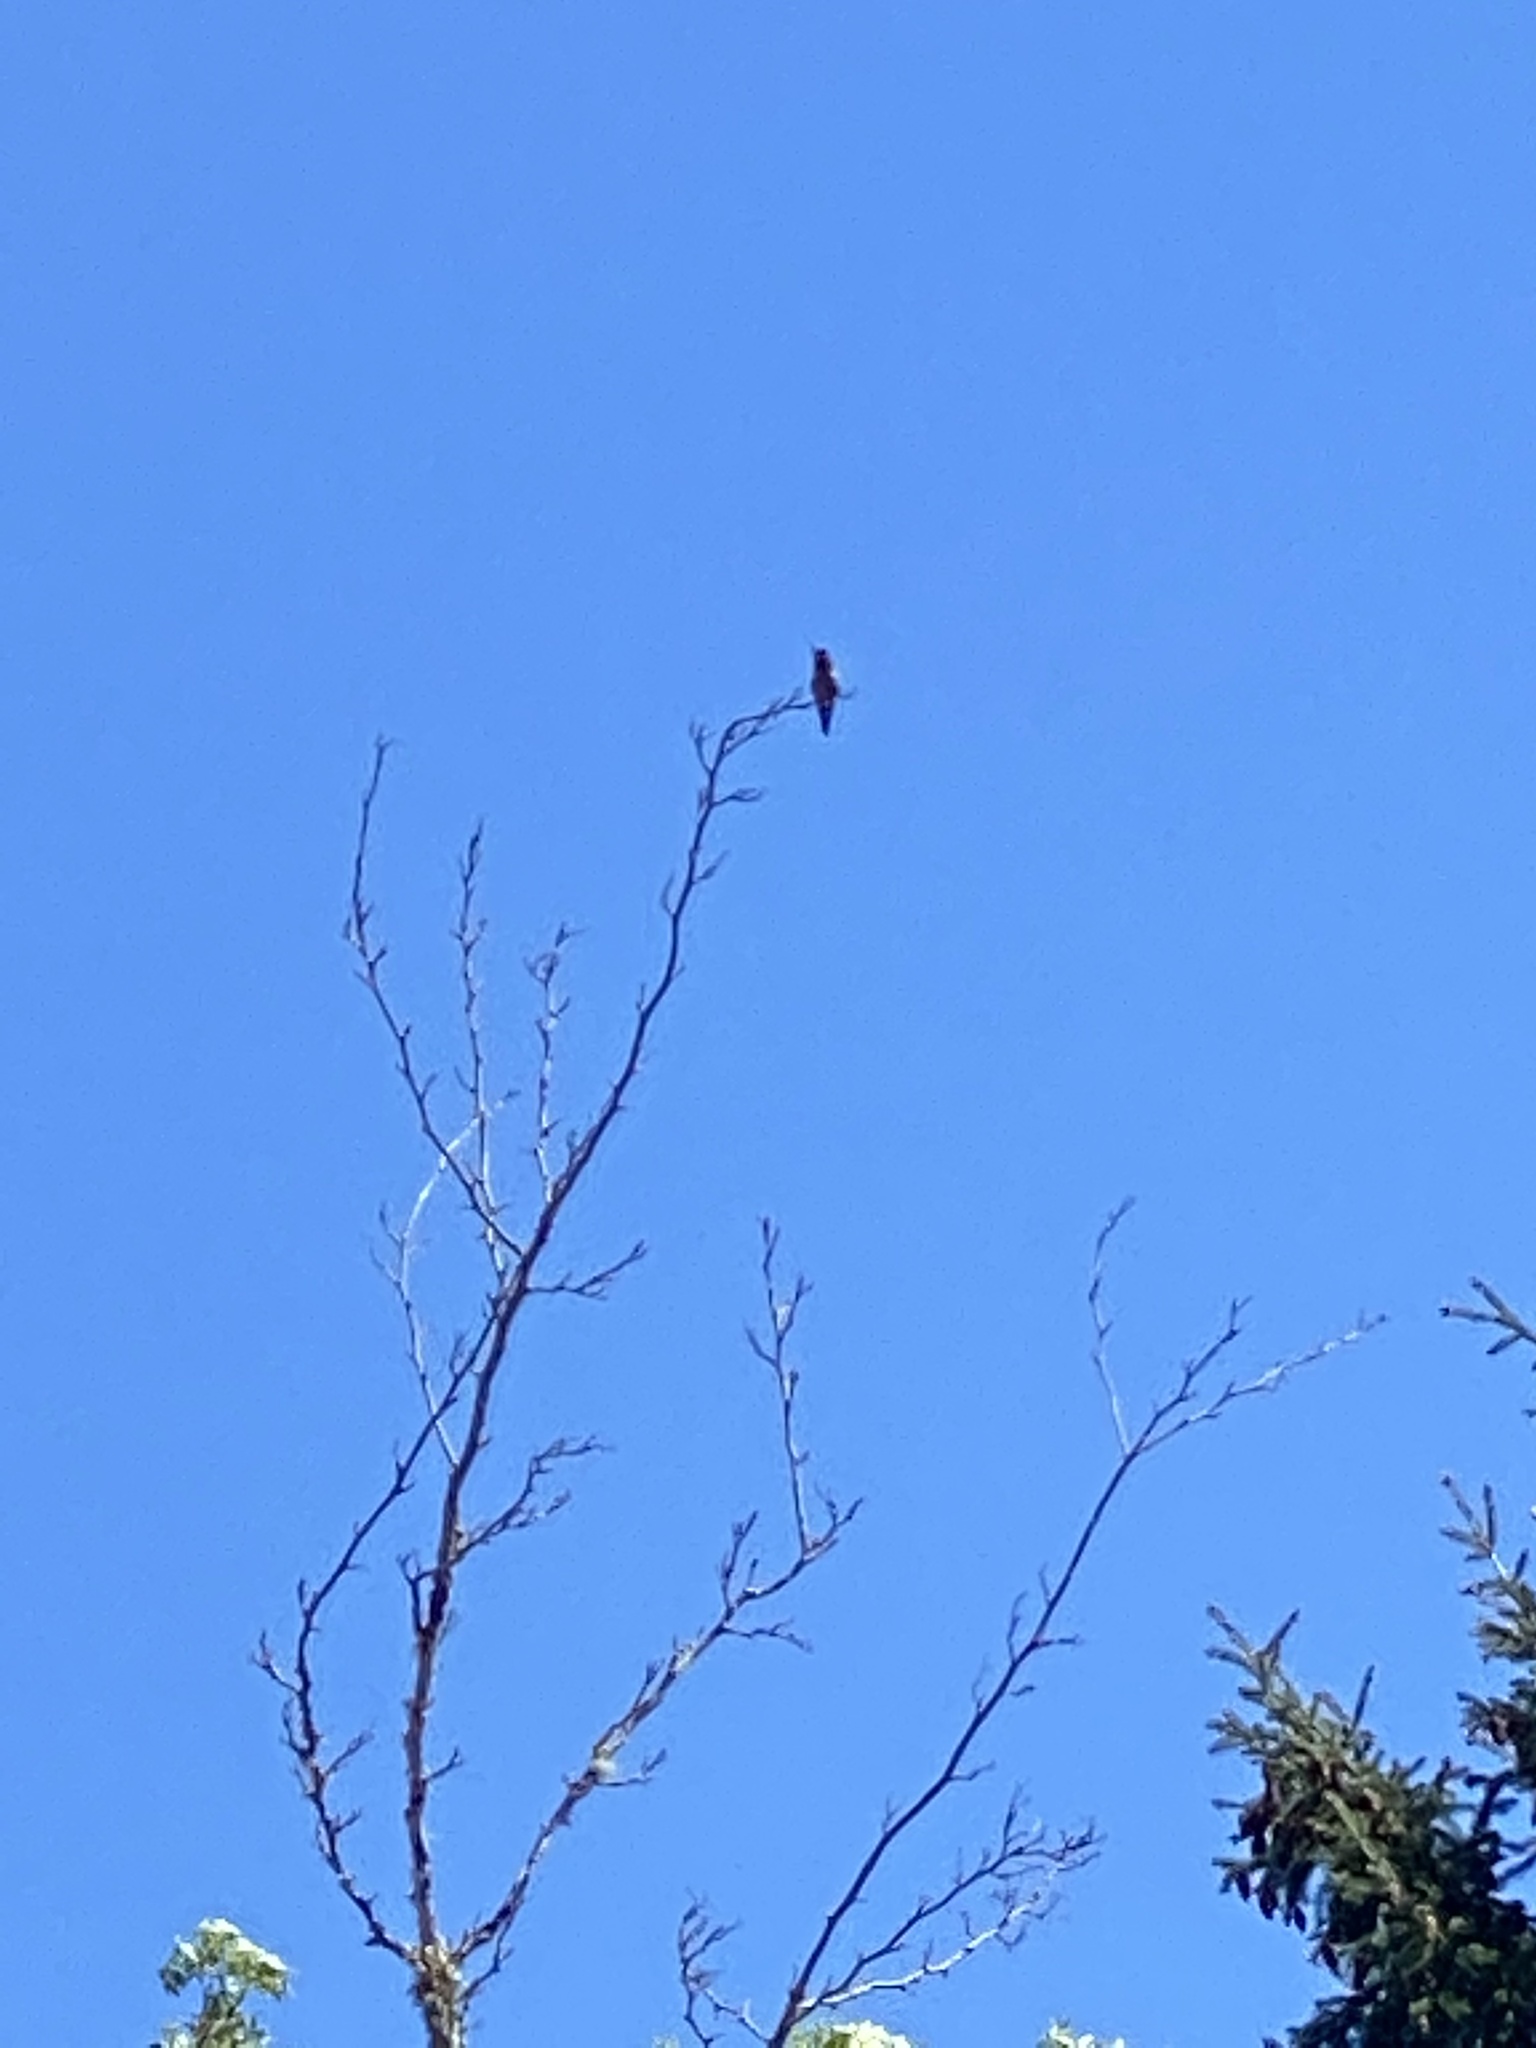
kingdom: Animalia
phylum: Chordata
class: Aves
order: Apodiformes
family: Trochilidae
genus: Calypte
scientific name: Calypte anna
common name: Anna's hummingbird
